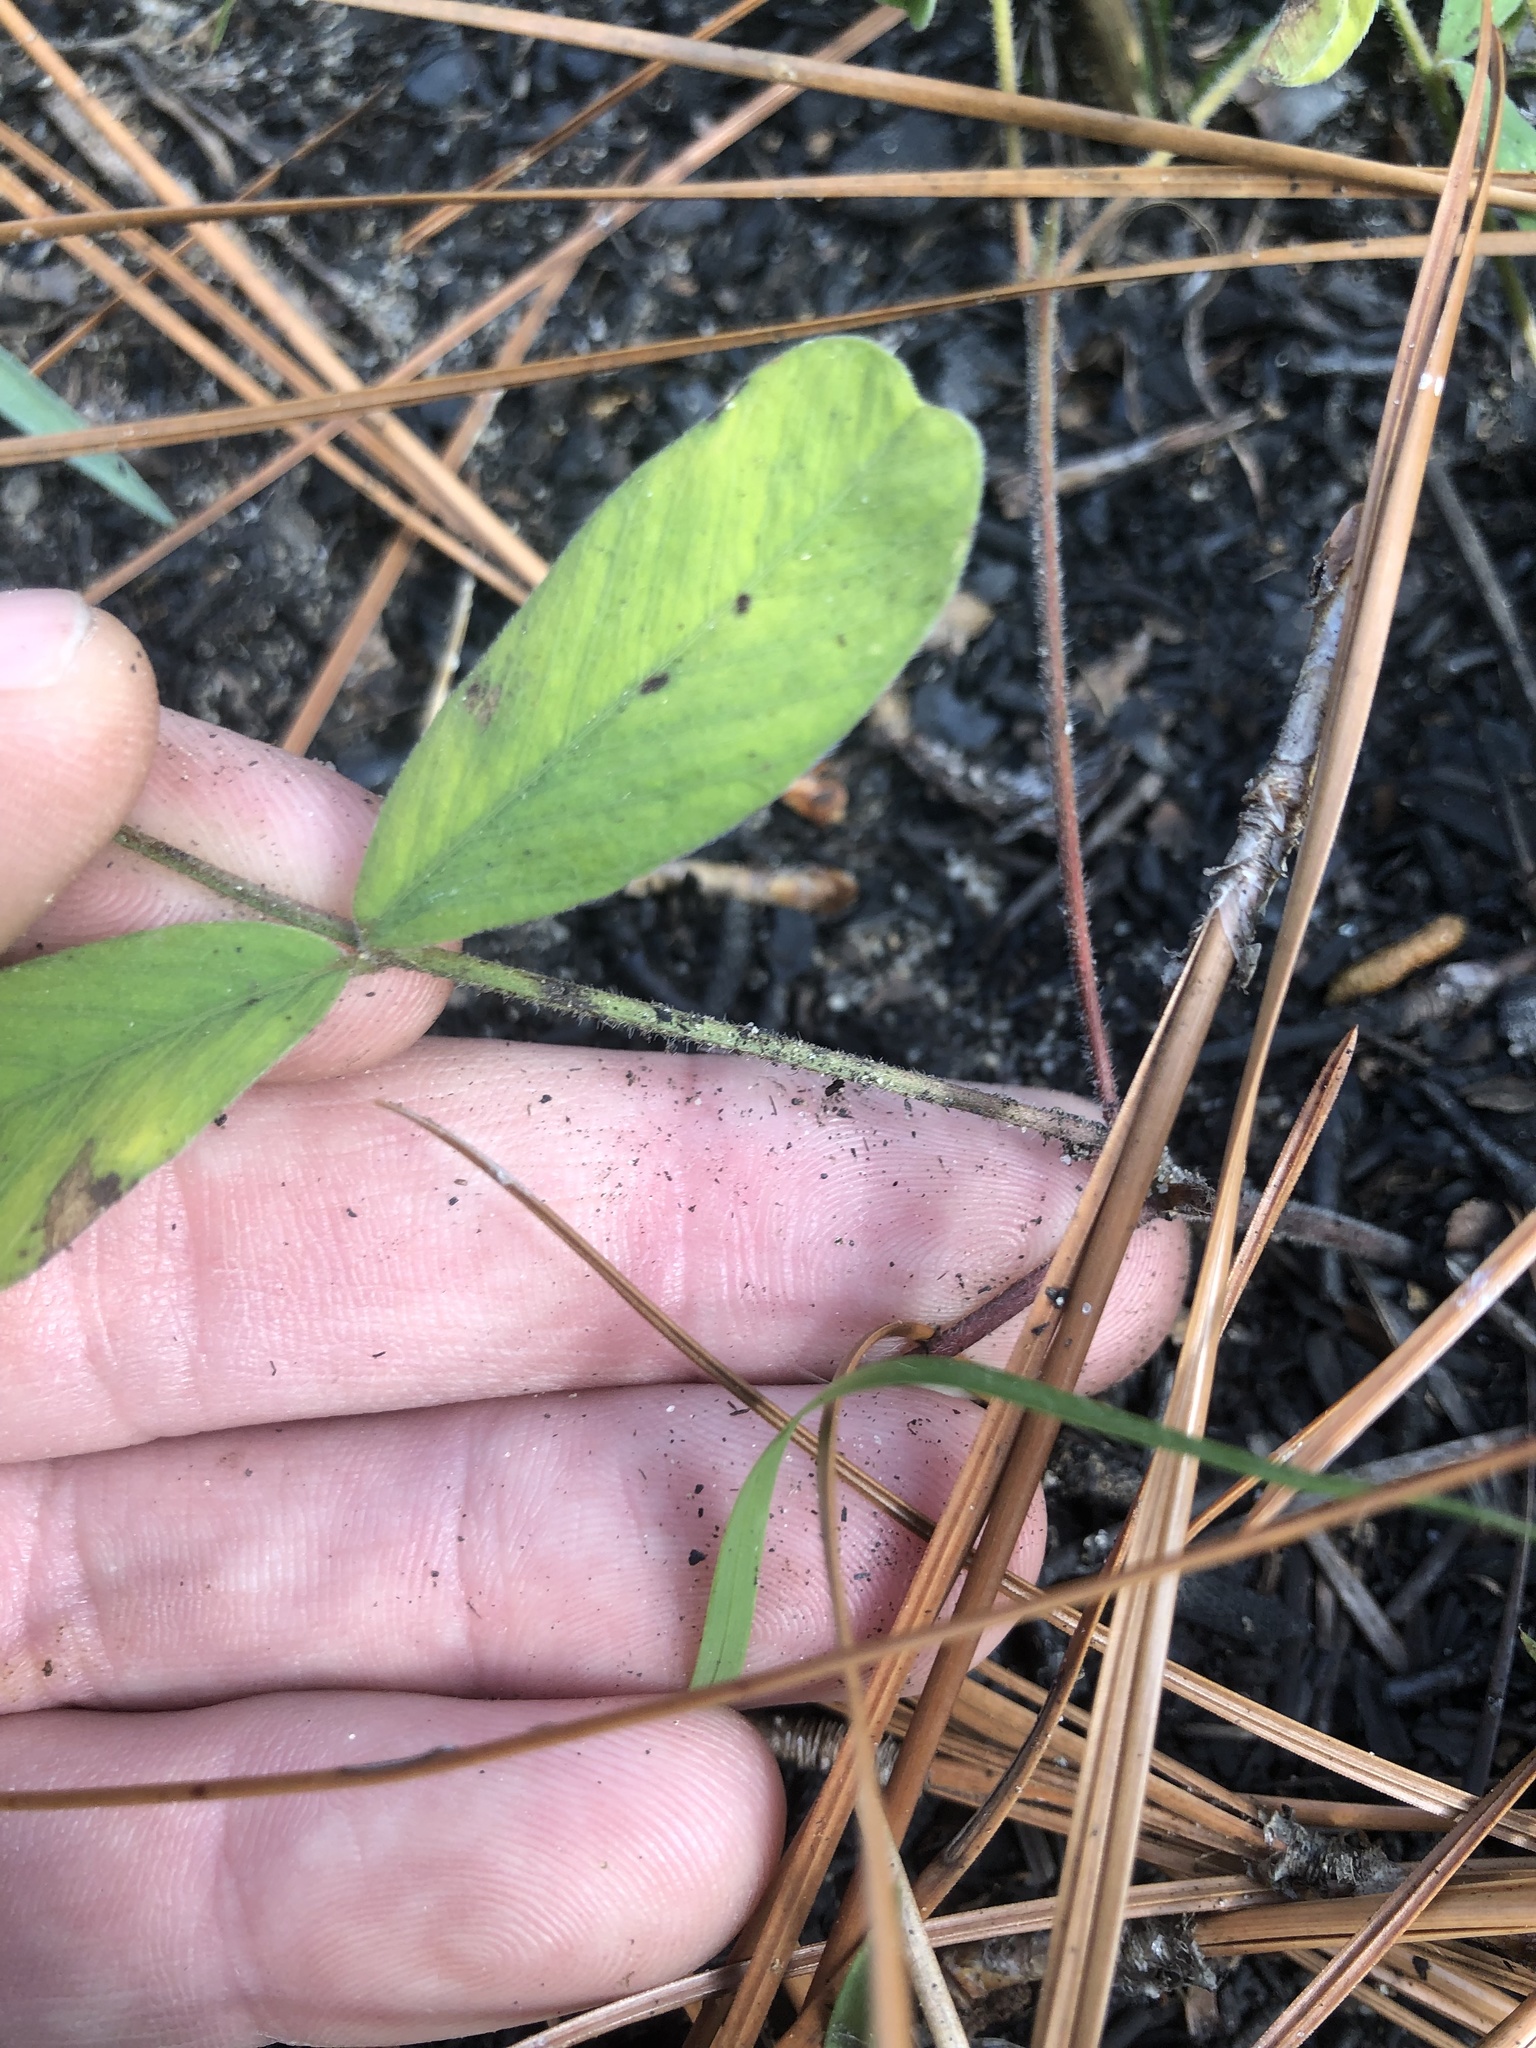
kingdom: Plantae
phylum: Tracheophyta
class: Magnoliopsida
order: Fabales
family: Fabaceae
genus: Tephrosia
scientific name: Tephrosia florida
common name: Florida hoary-pea
